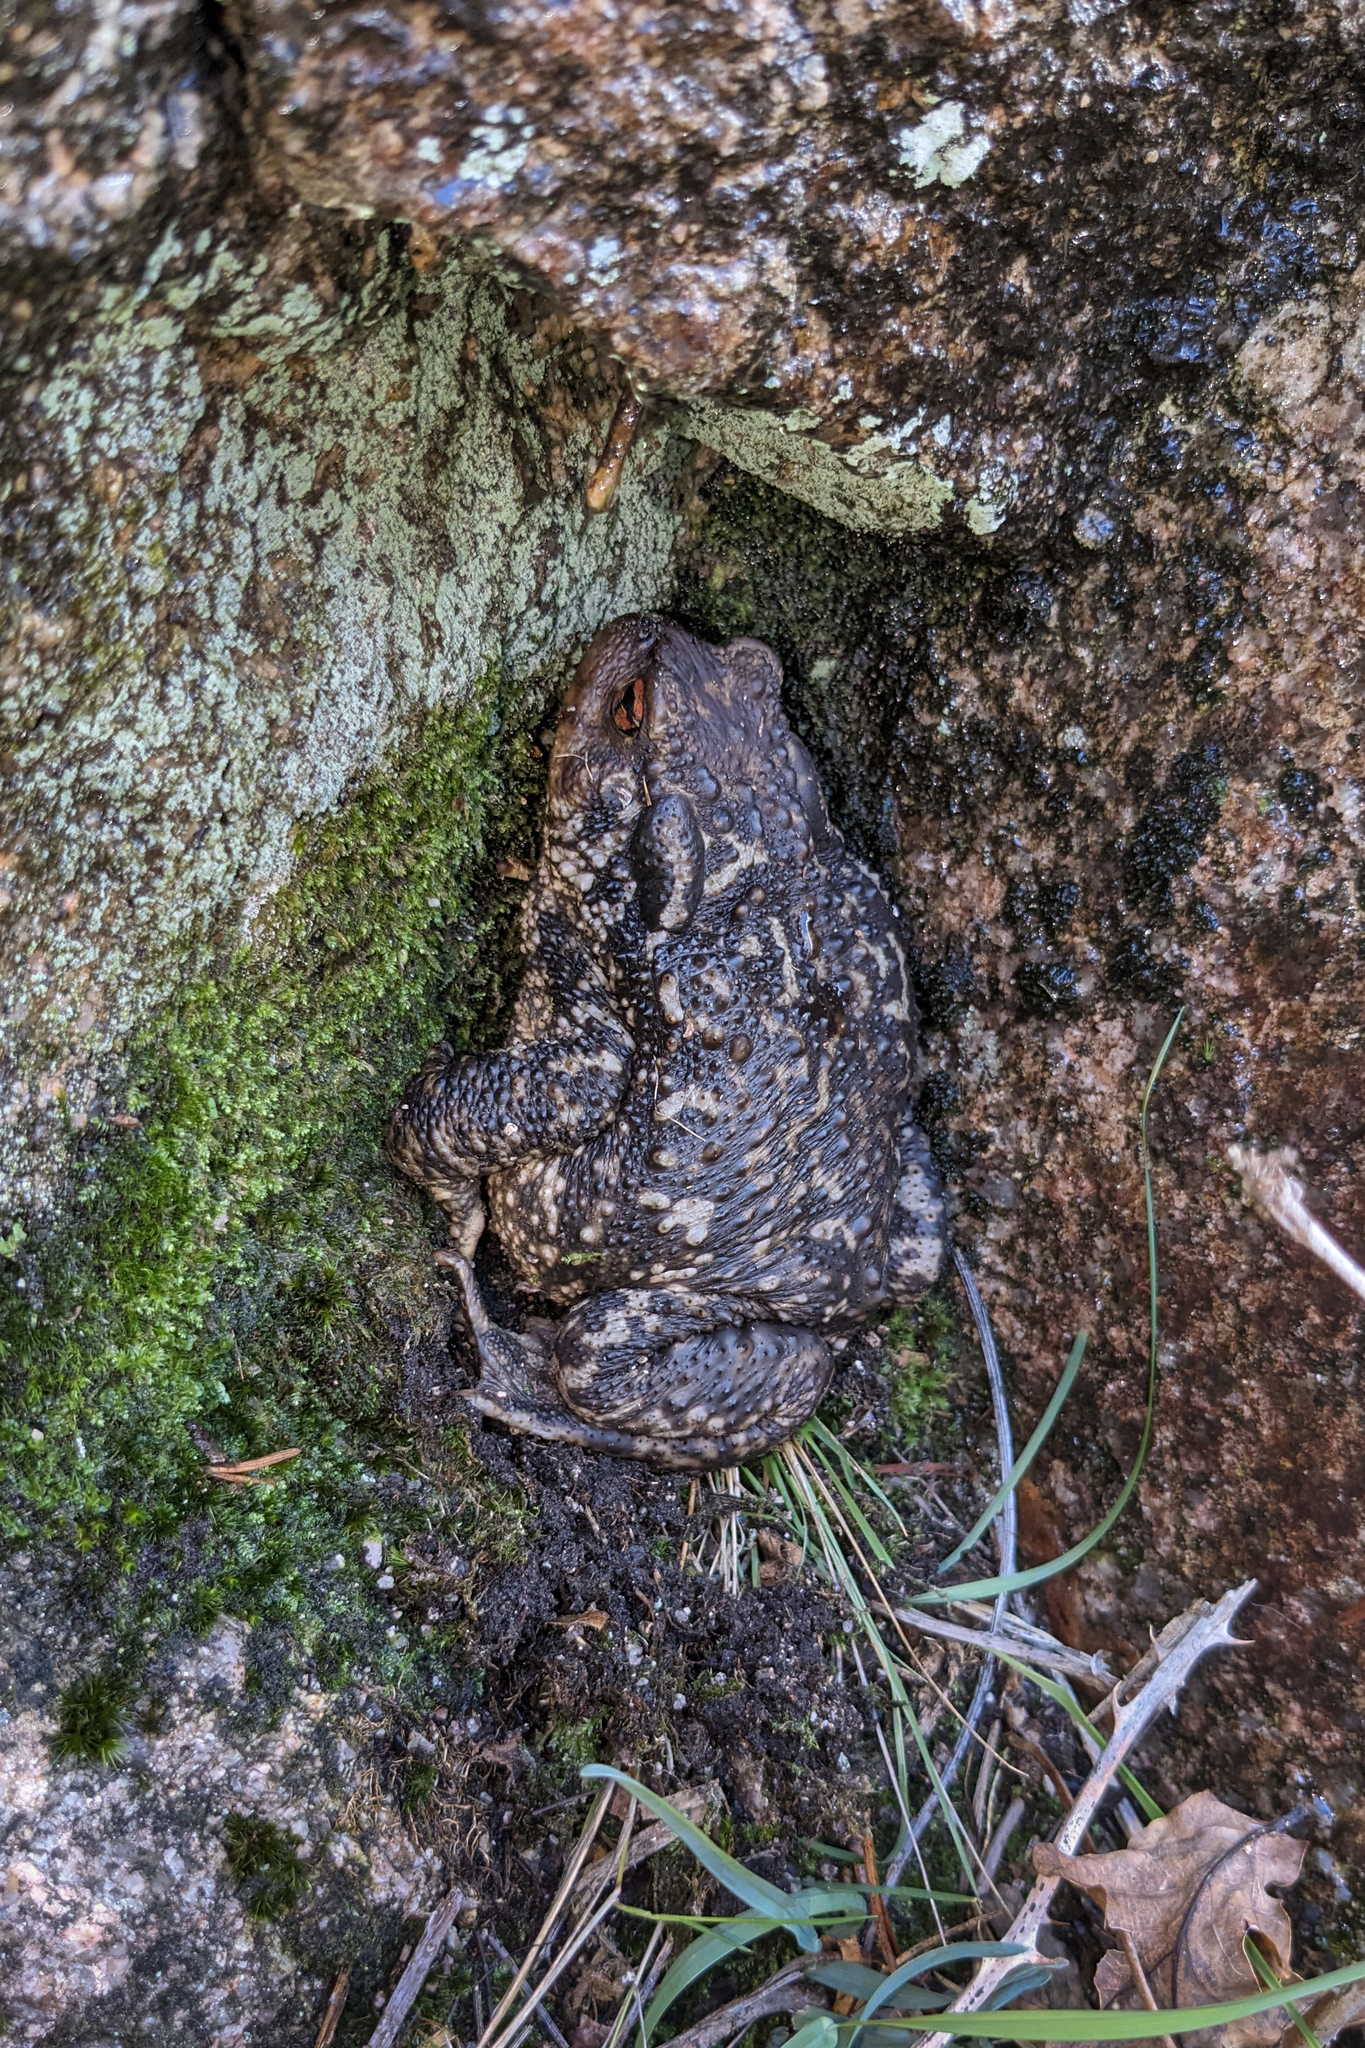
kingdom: Animalia
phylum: Chordata
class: Amphibia
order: Anura
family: Bufonidae
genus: Bufo
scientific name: Bufo spinosus
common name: Western common toad
